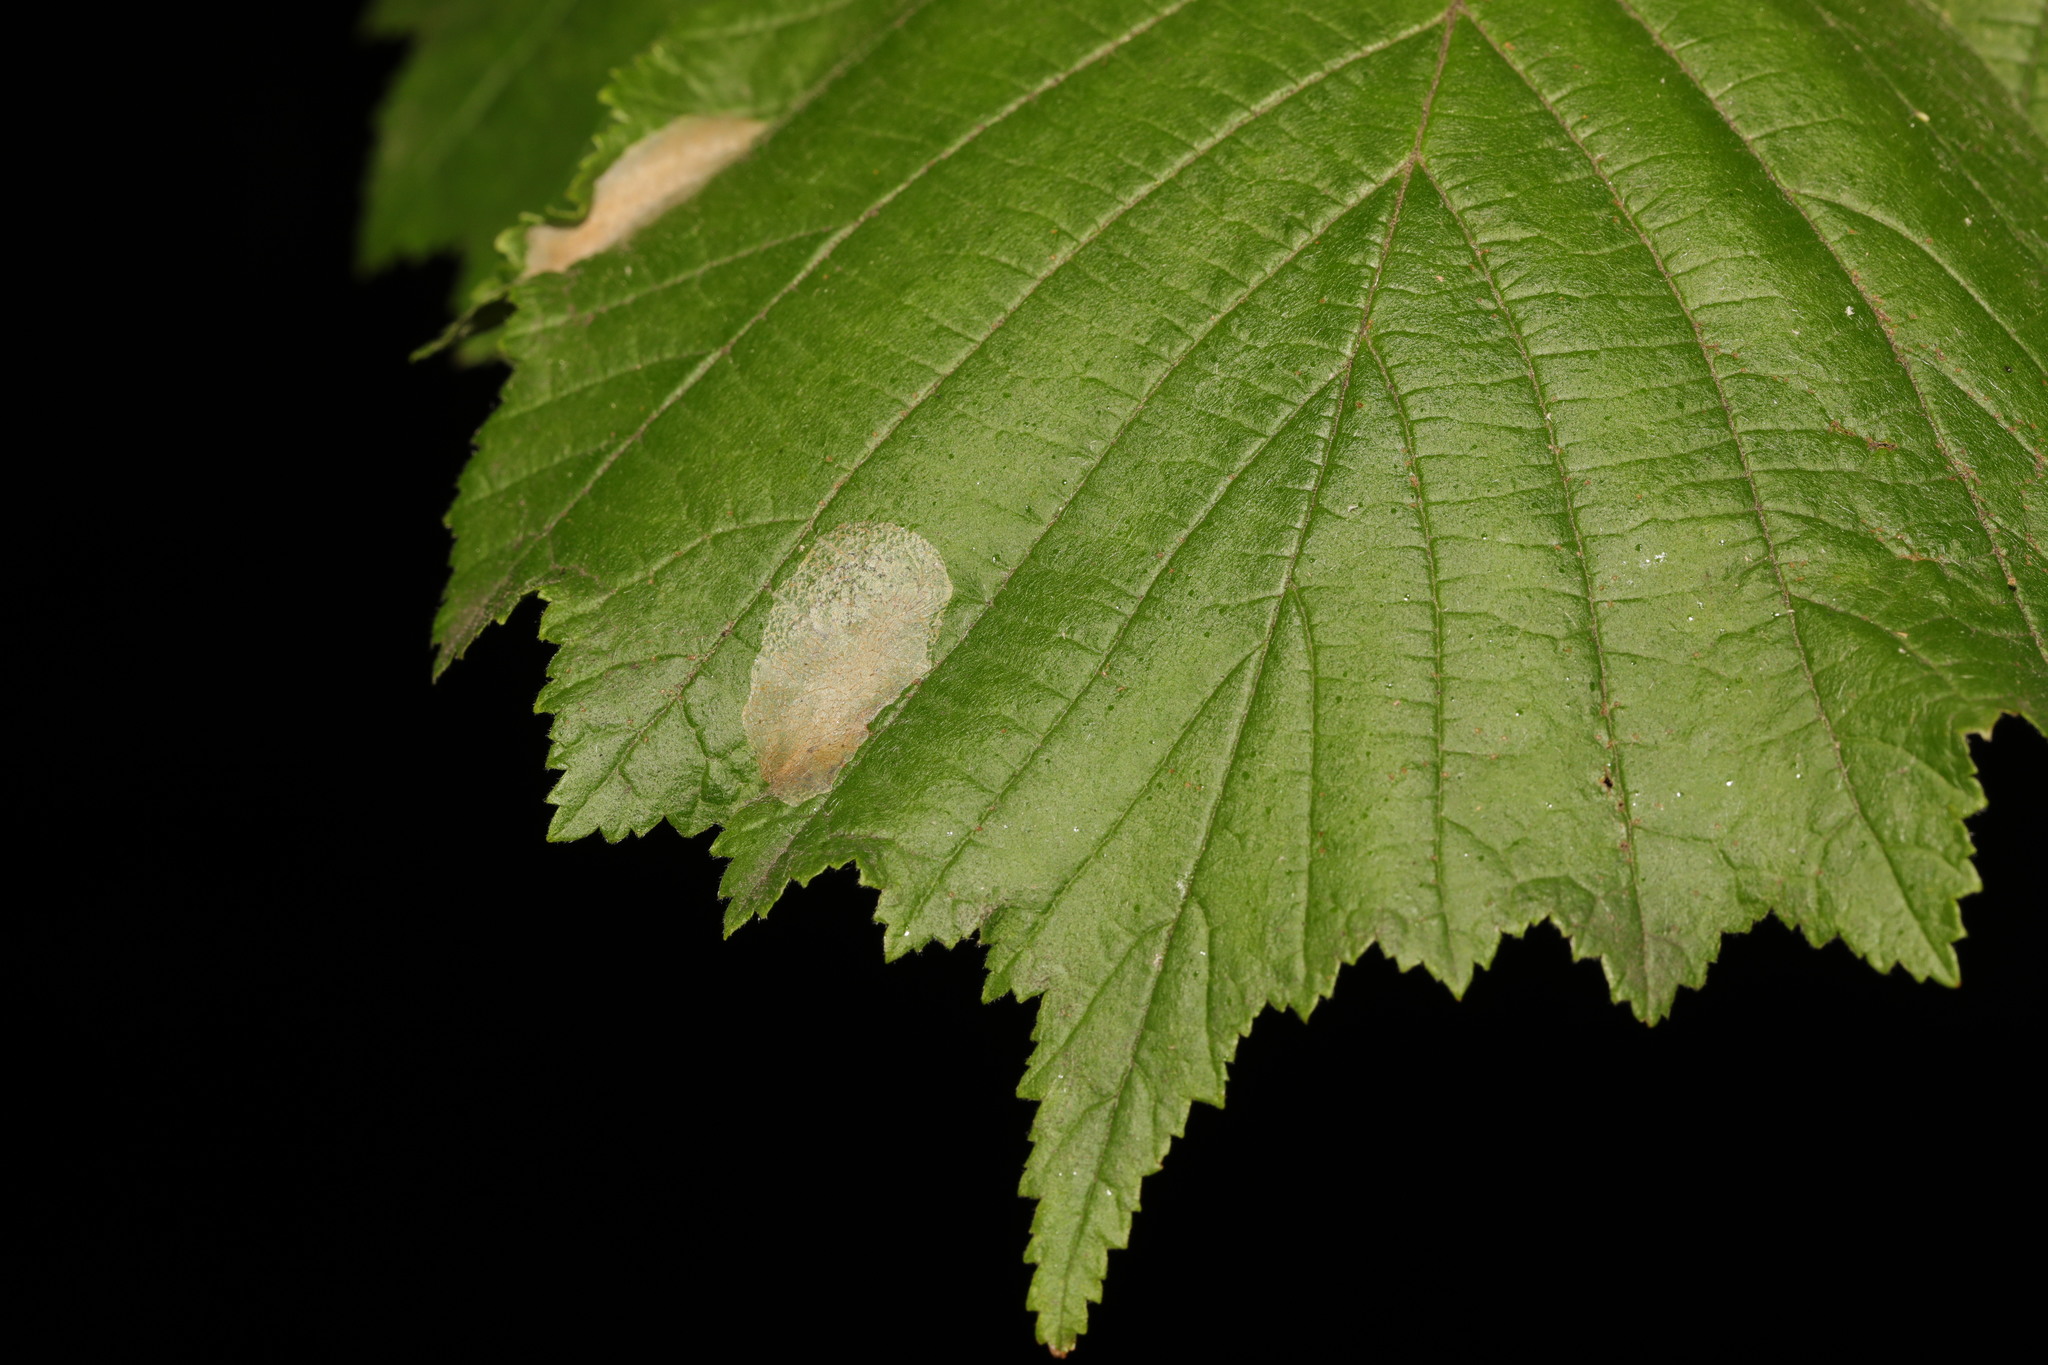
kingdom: Animalia
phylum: Arthropoda
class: Insecta
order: Lepidoptera
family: Gracillariidae
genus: Phyllonorycter
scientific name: Phyllonorycter coryli
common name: Nut-leaf blister moth
